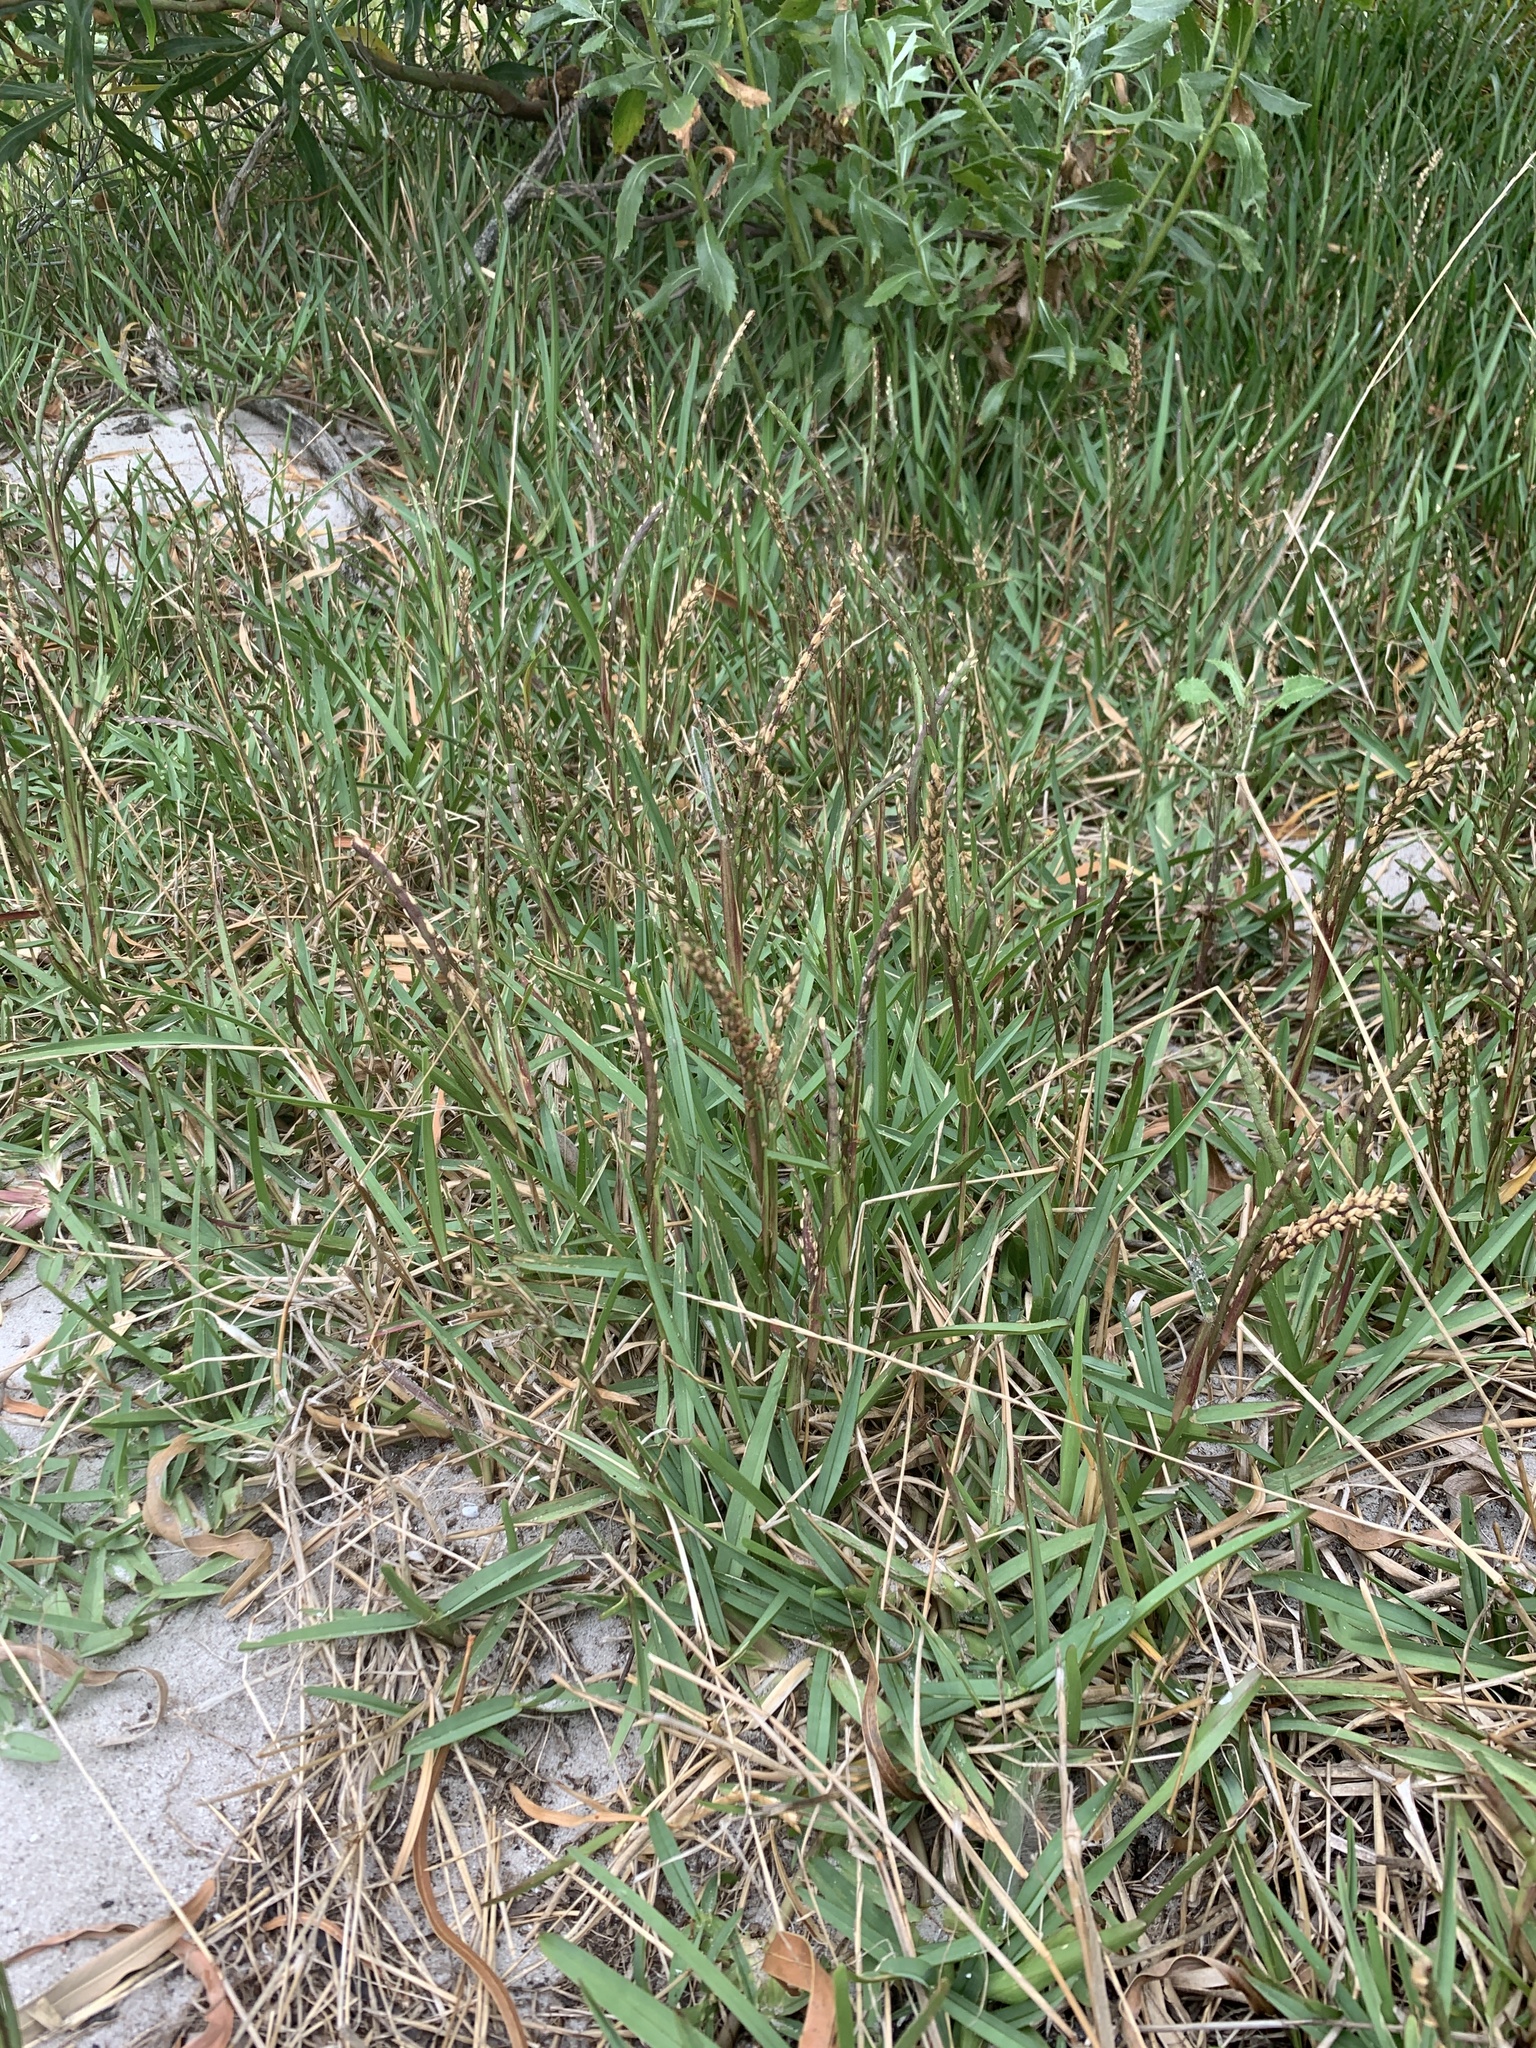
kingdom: Plantae
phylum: Tracheophyta
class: Liliopsida
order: Poales
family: Poaceae
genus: Stenotaphrum
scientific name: Stenotaphrum secundatum
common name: St. augustine grass
